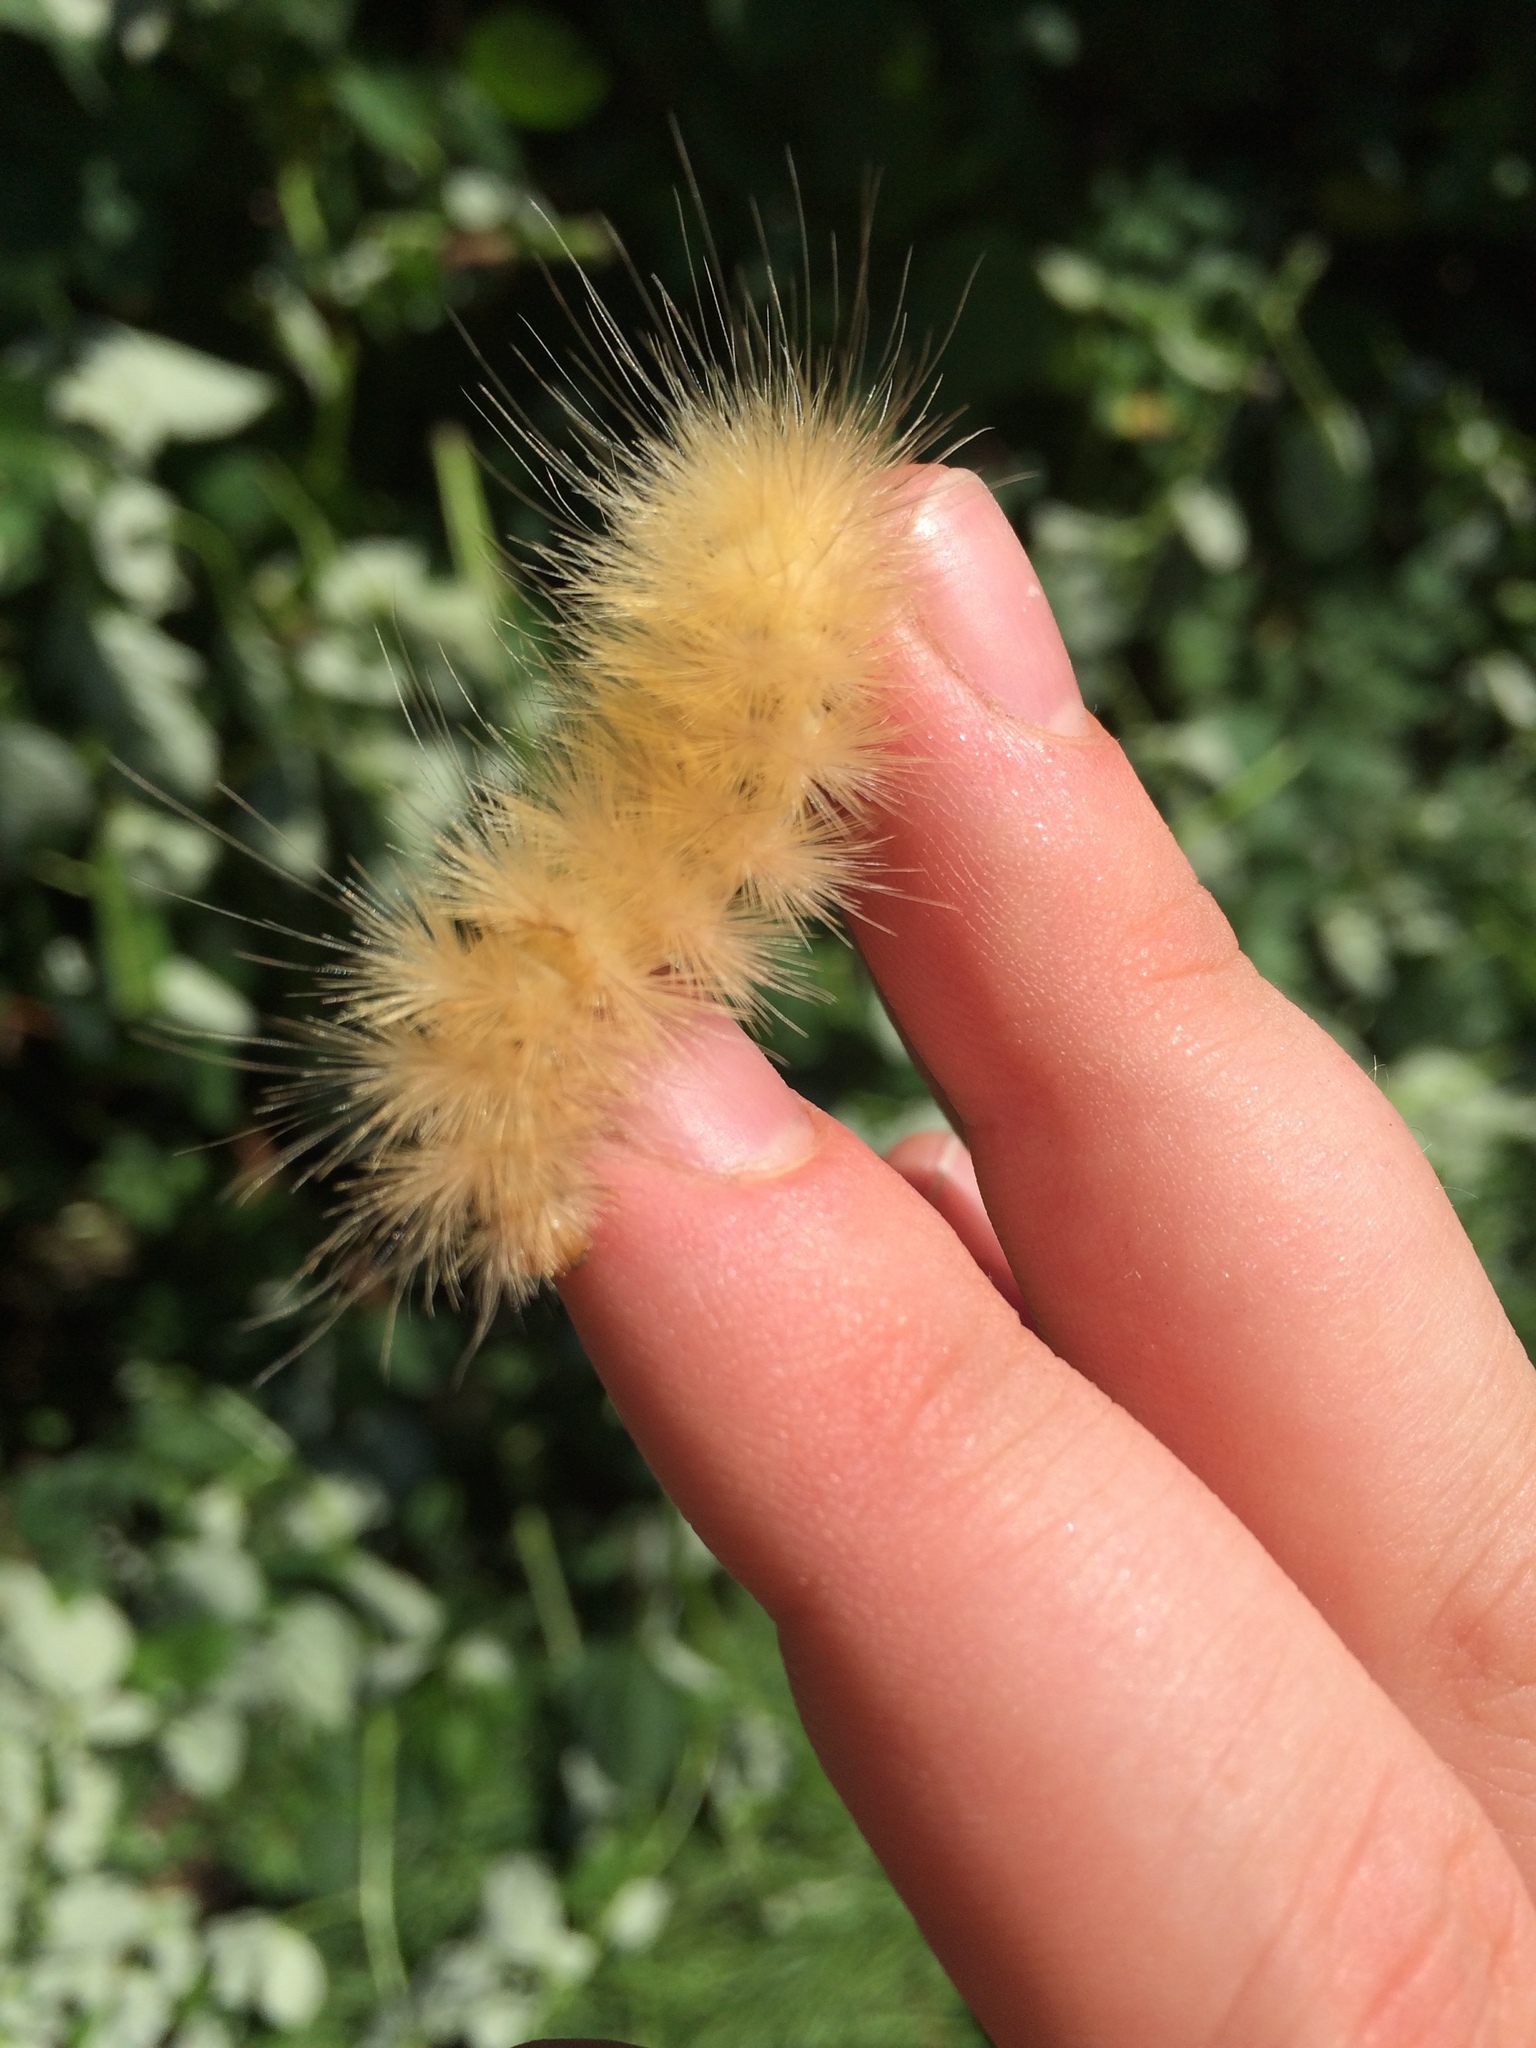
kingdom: Animalia
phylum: Arthropoda
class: Insecta
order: Lepidoptera
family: Erebidae
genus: Spilosoma
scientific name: Spilosoma virginica
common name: Virginia tiger moth
